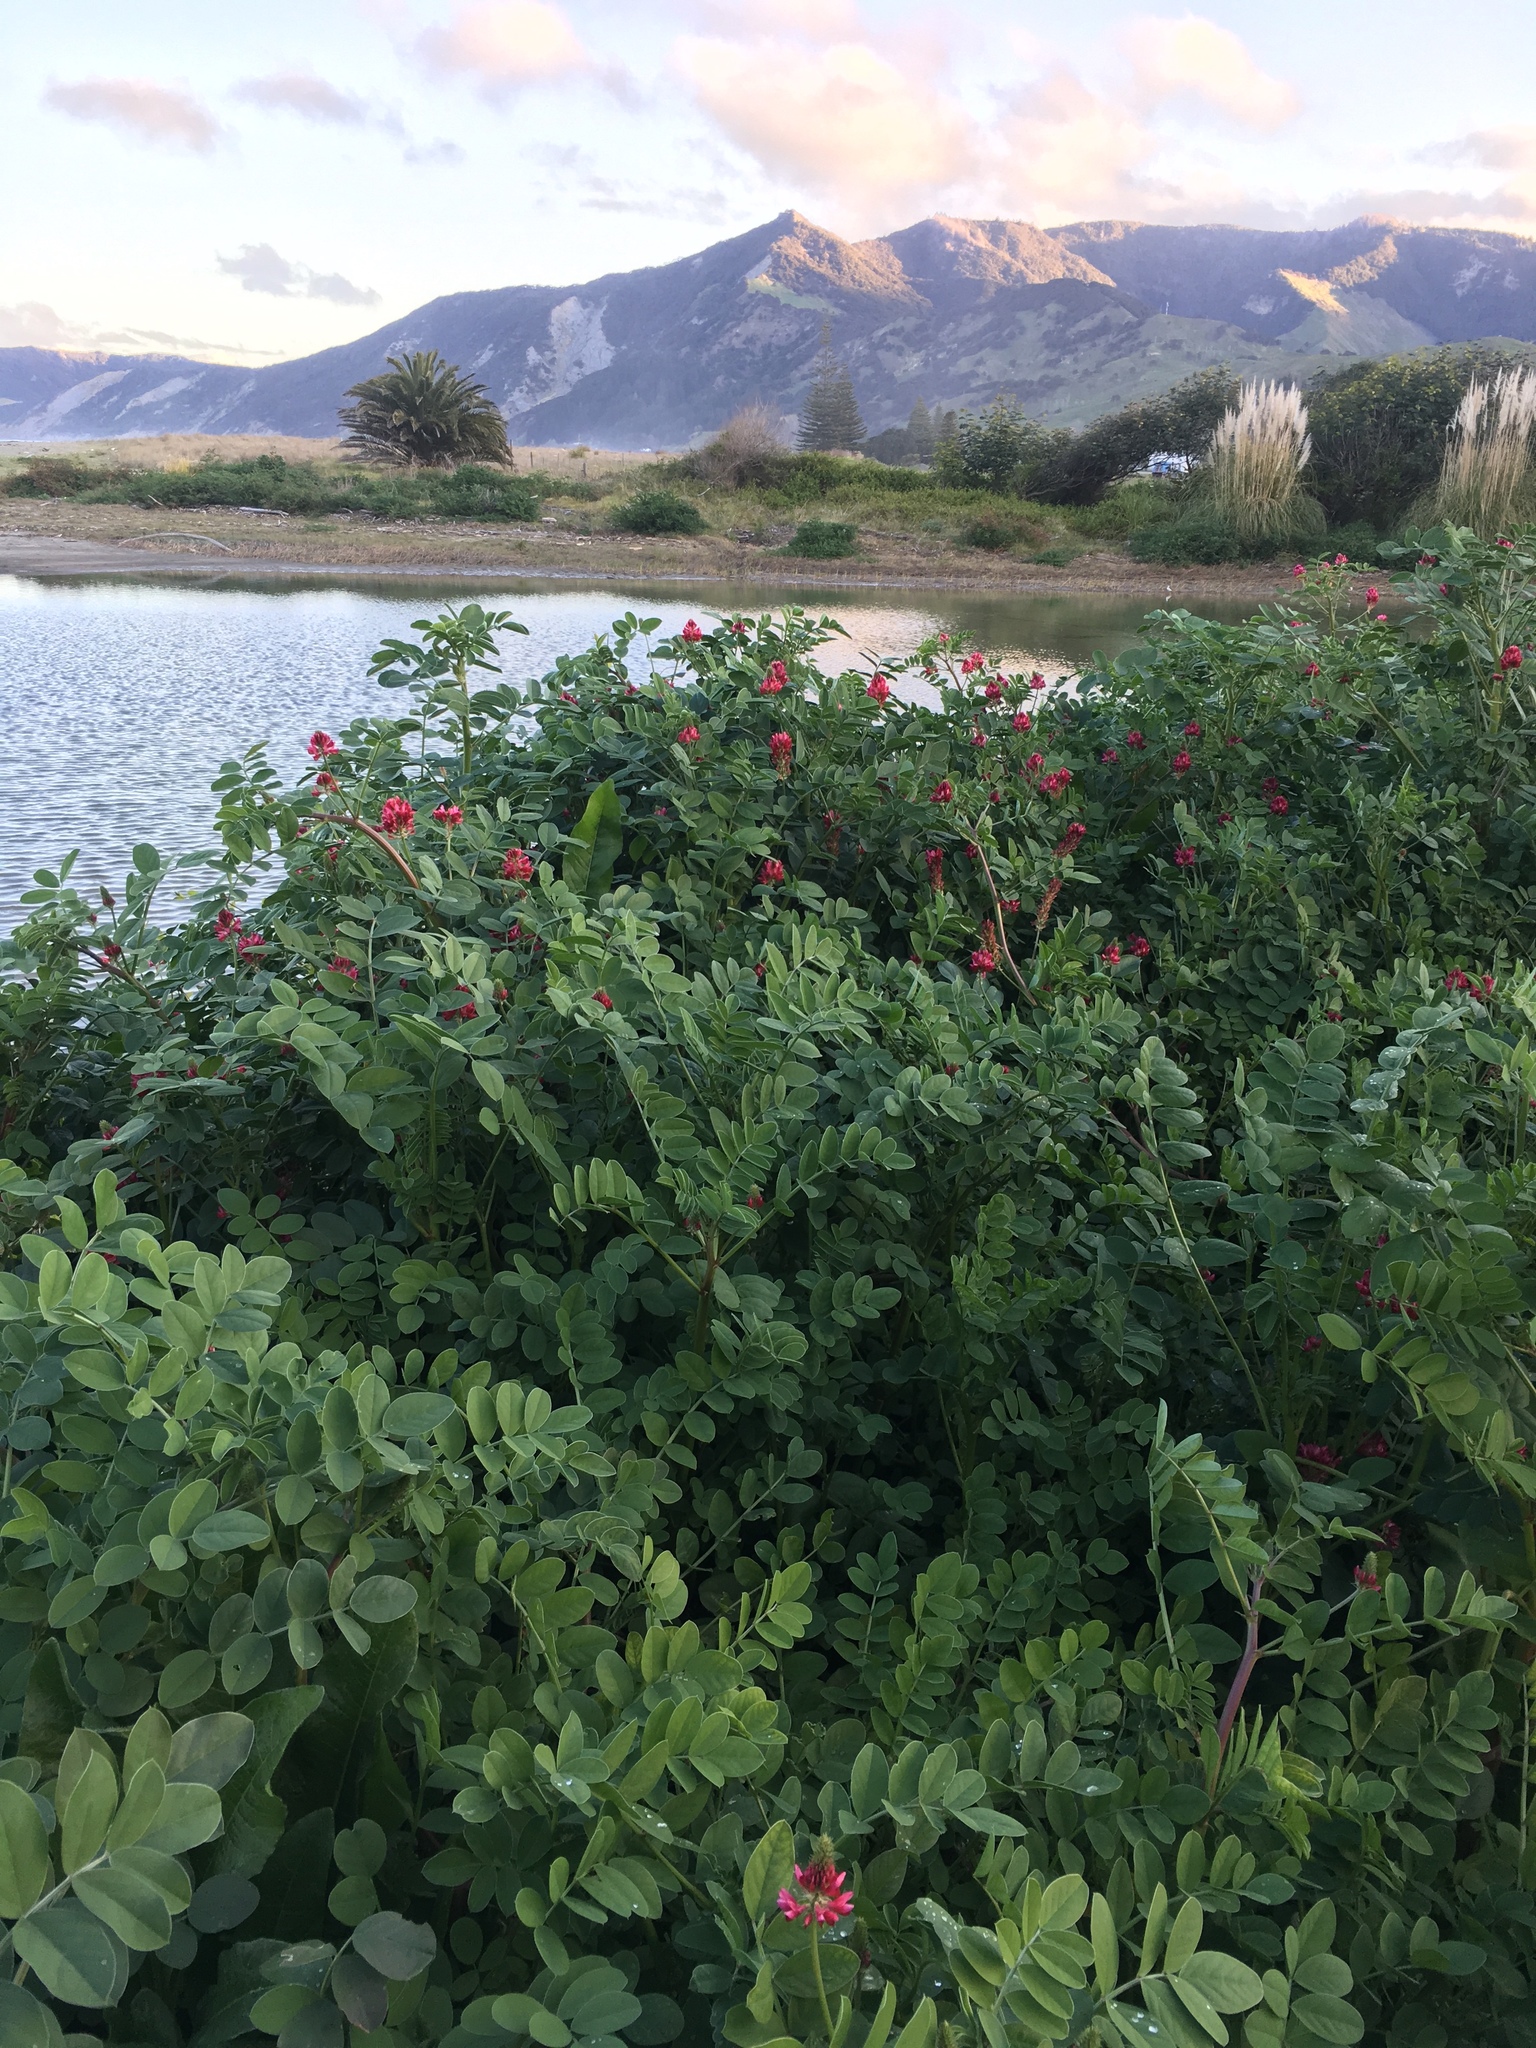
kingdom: Plantae
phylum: Tracheophyta
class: Magnoliopsida
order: Fabales
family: Fabaceae
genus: Sulla
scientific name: Sulla coronaria
